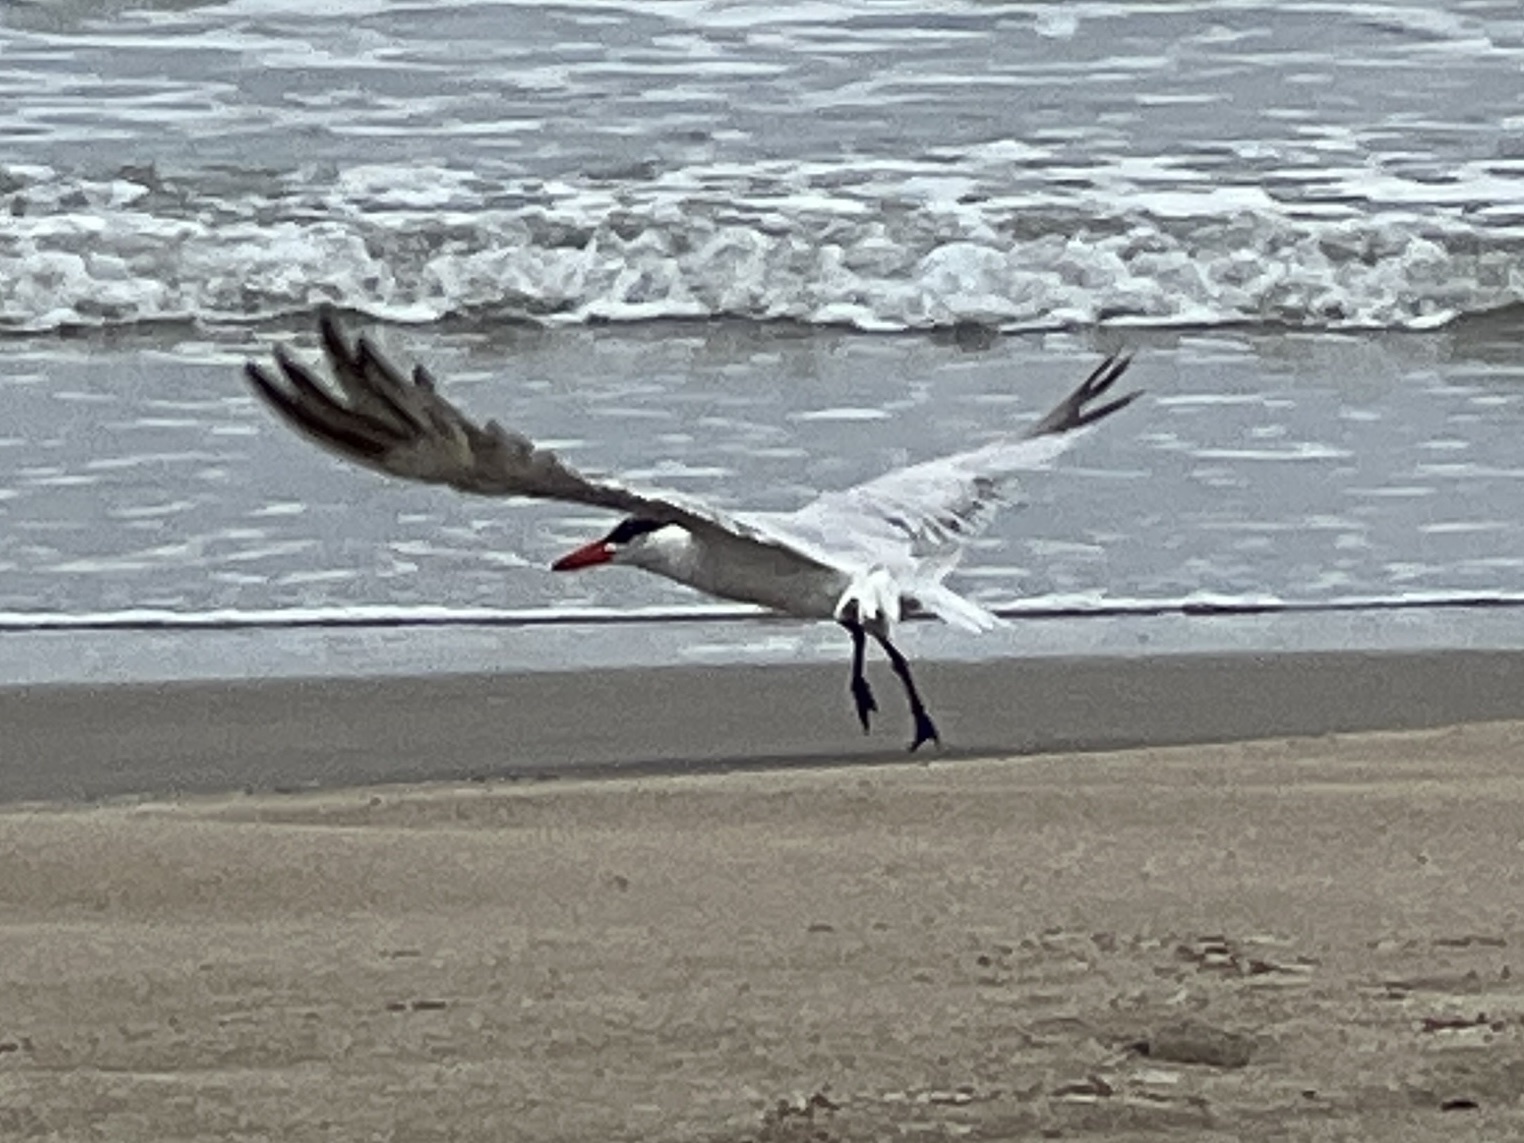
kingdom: Animalia
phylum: Chordata
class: Aves
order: Charadriiformes
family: Laridae
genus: Hydroprogne
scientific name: Hydroprogne caspia
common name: Caspian tern
